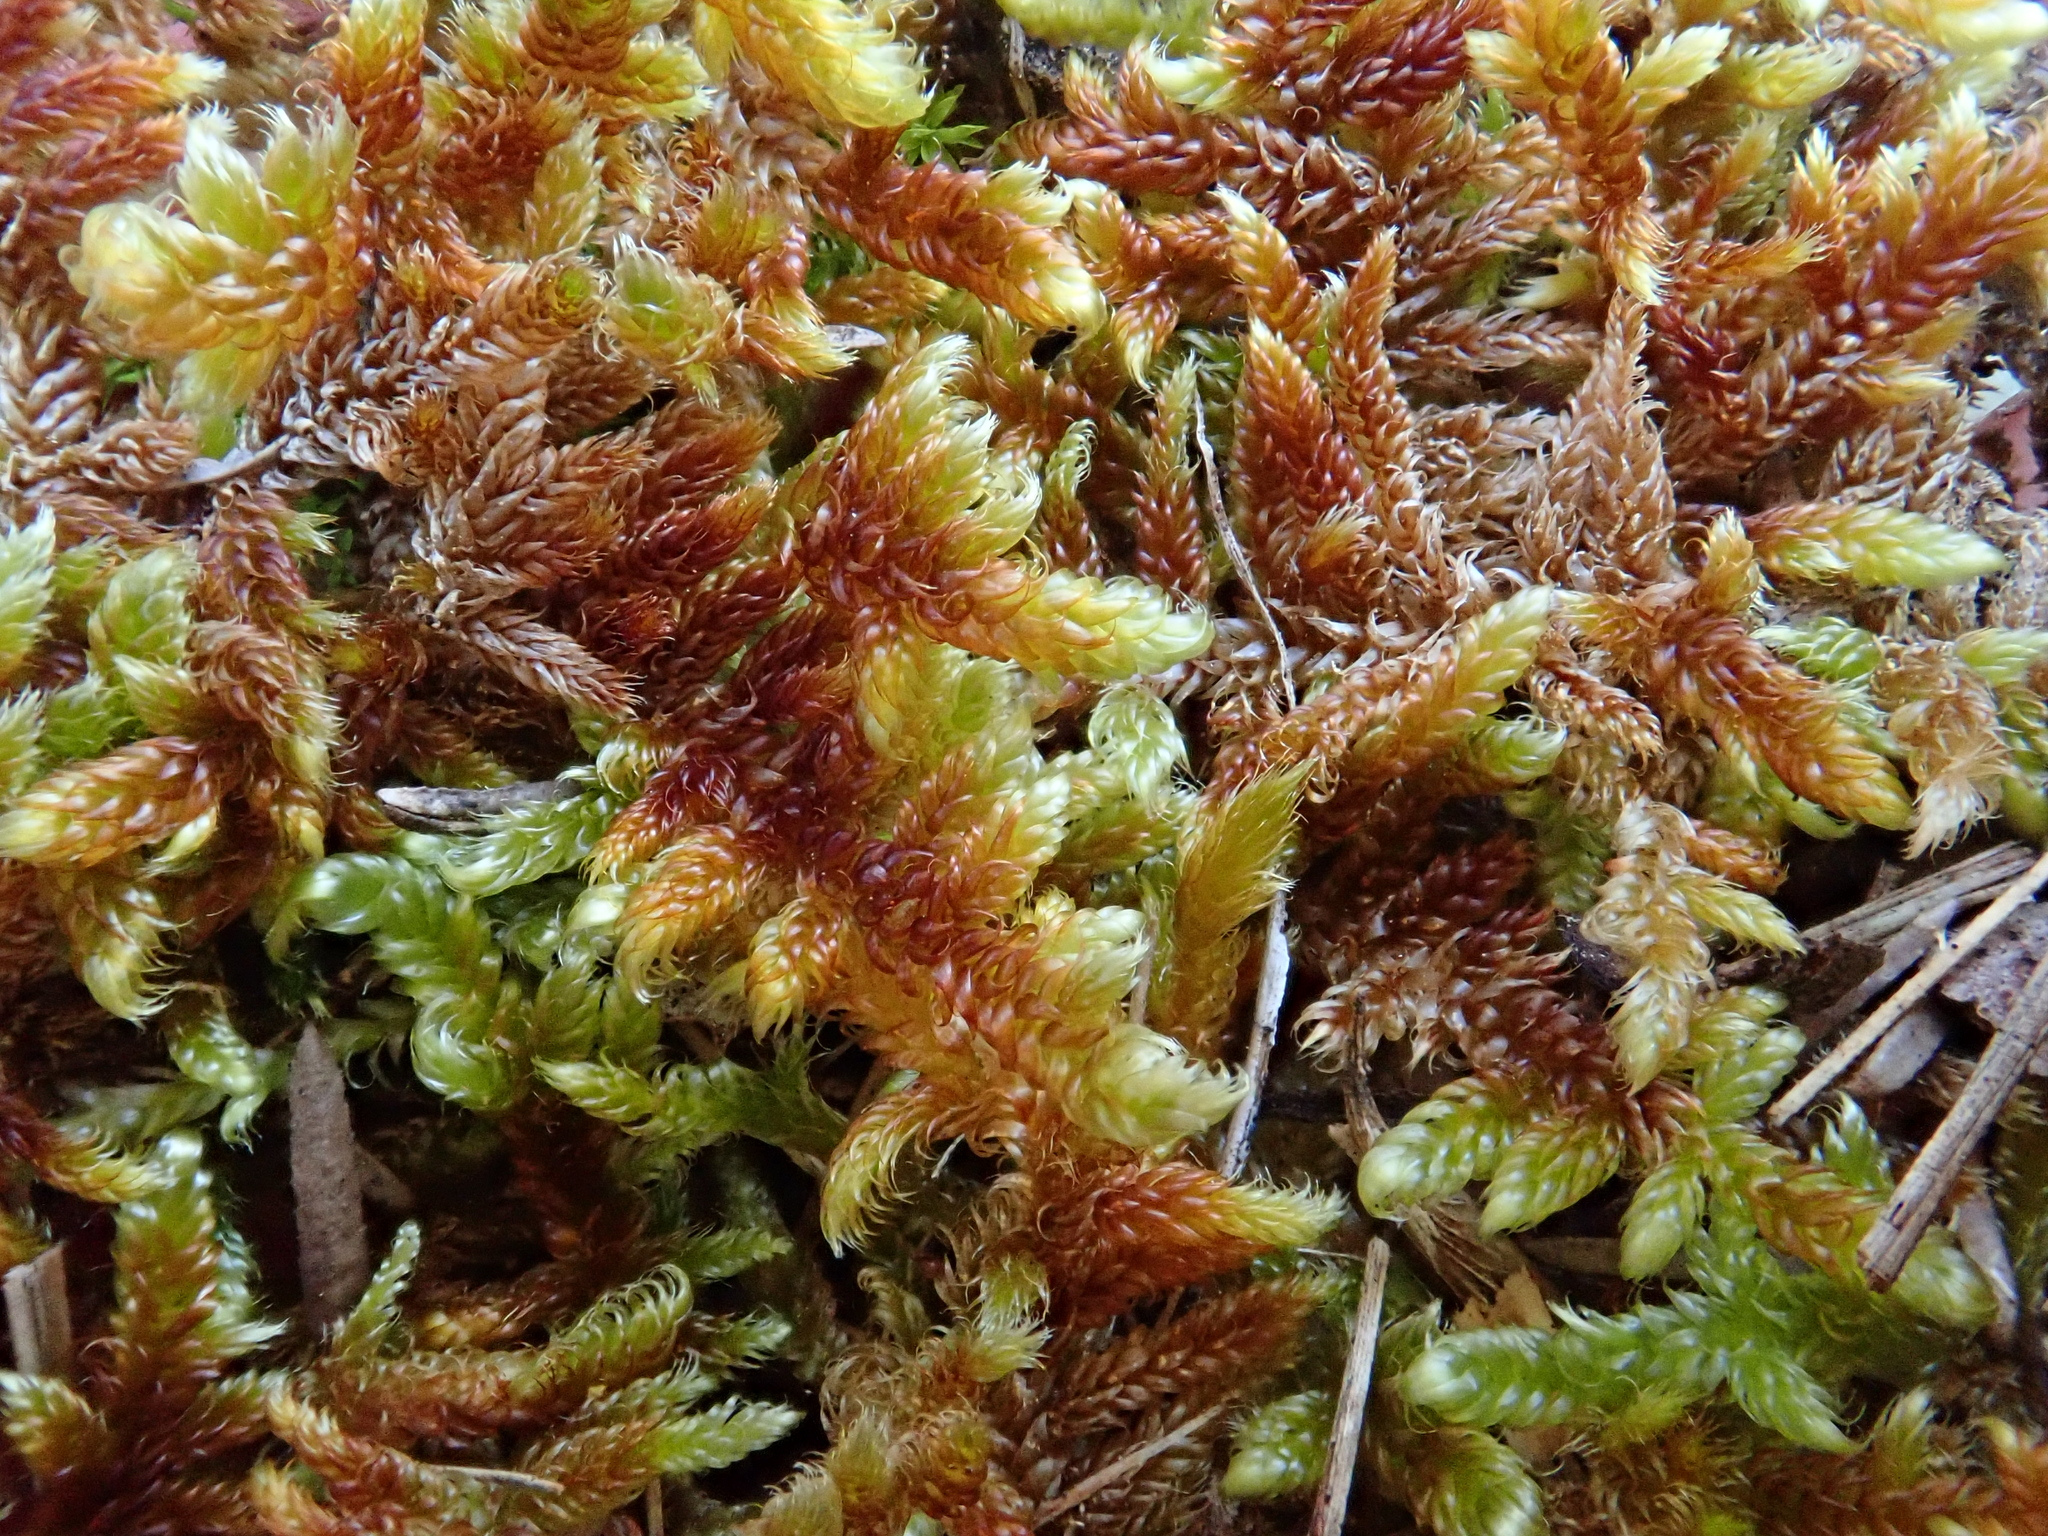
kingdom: Plantae
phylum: Bryophyta
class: Bryopsida
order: Hypnales
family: Hypnaceae
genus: Hypnum
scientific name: Hypnum cupressiforme
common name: Cypress-leaved plait-moss
